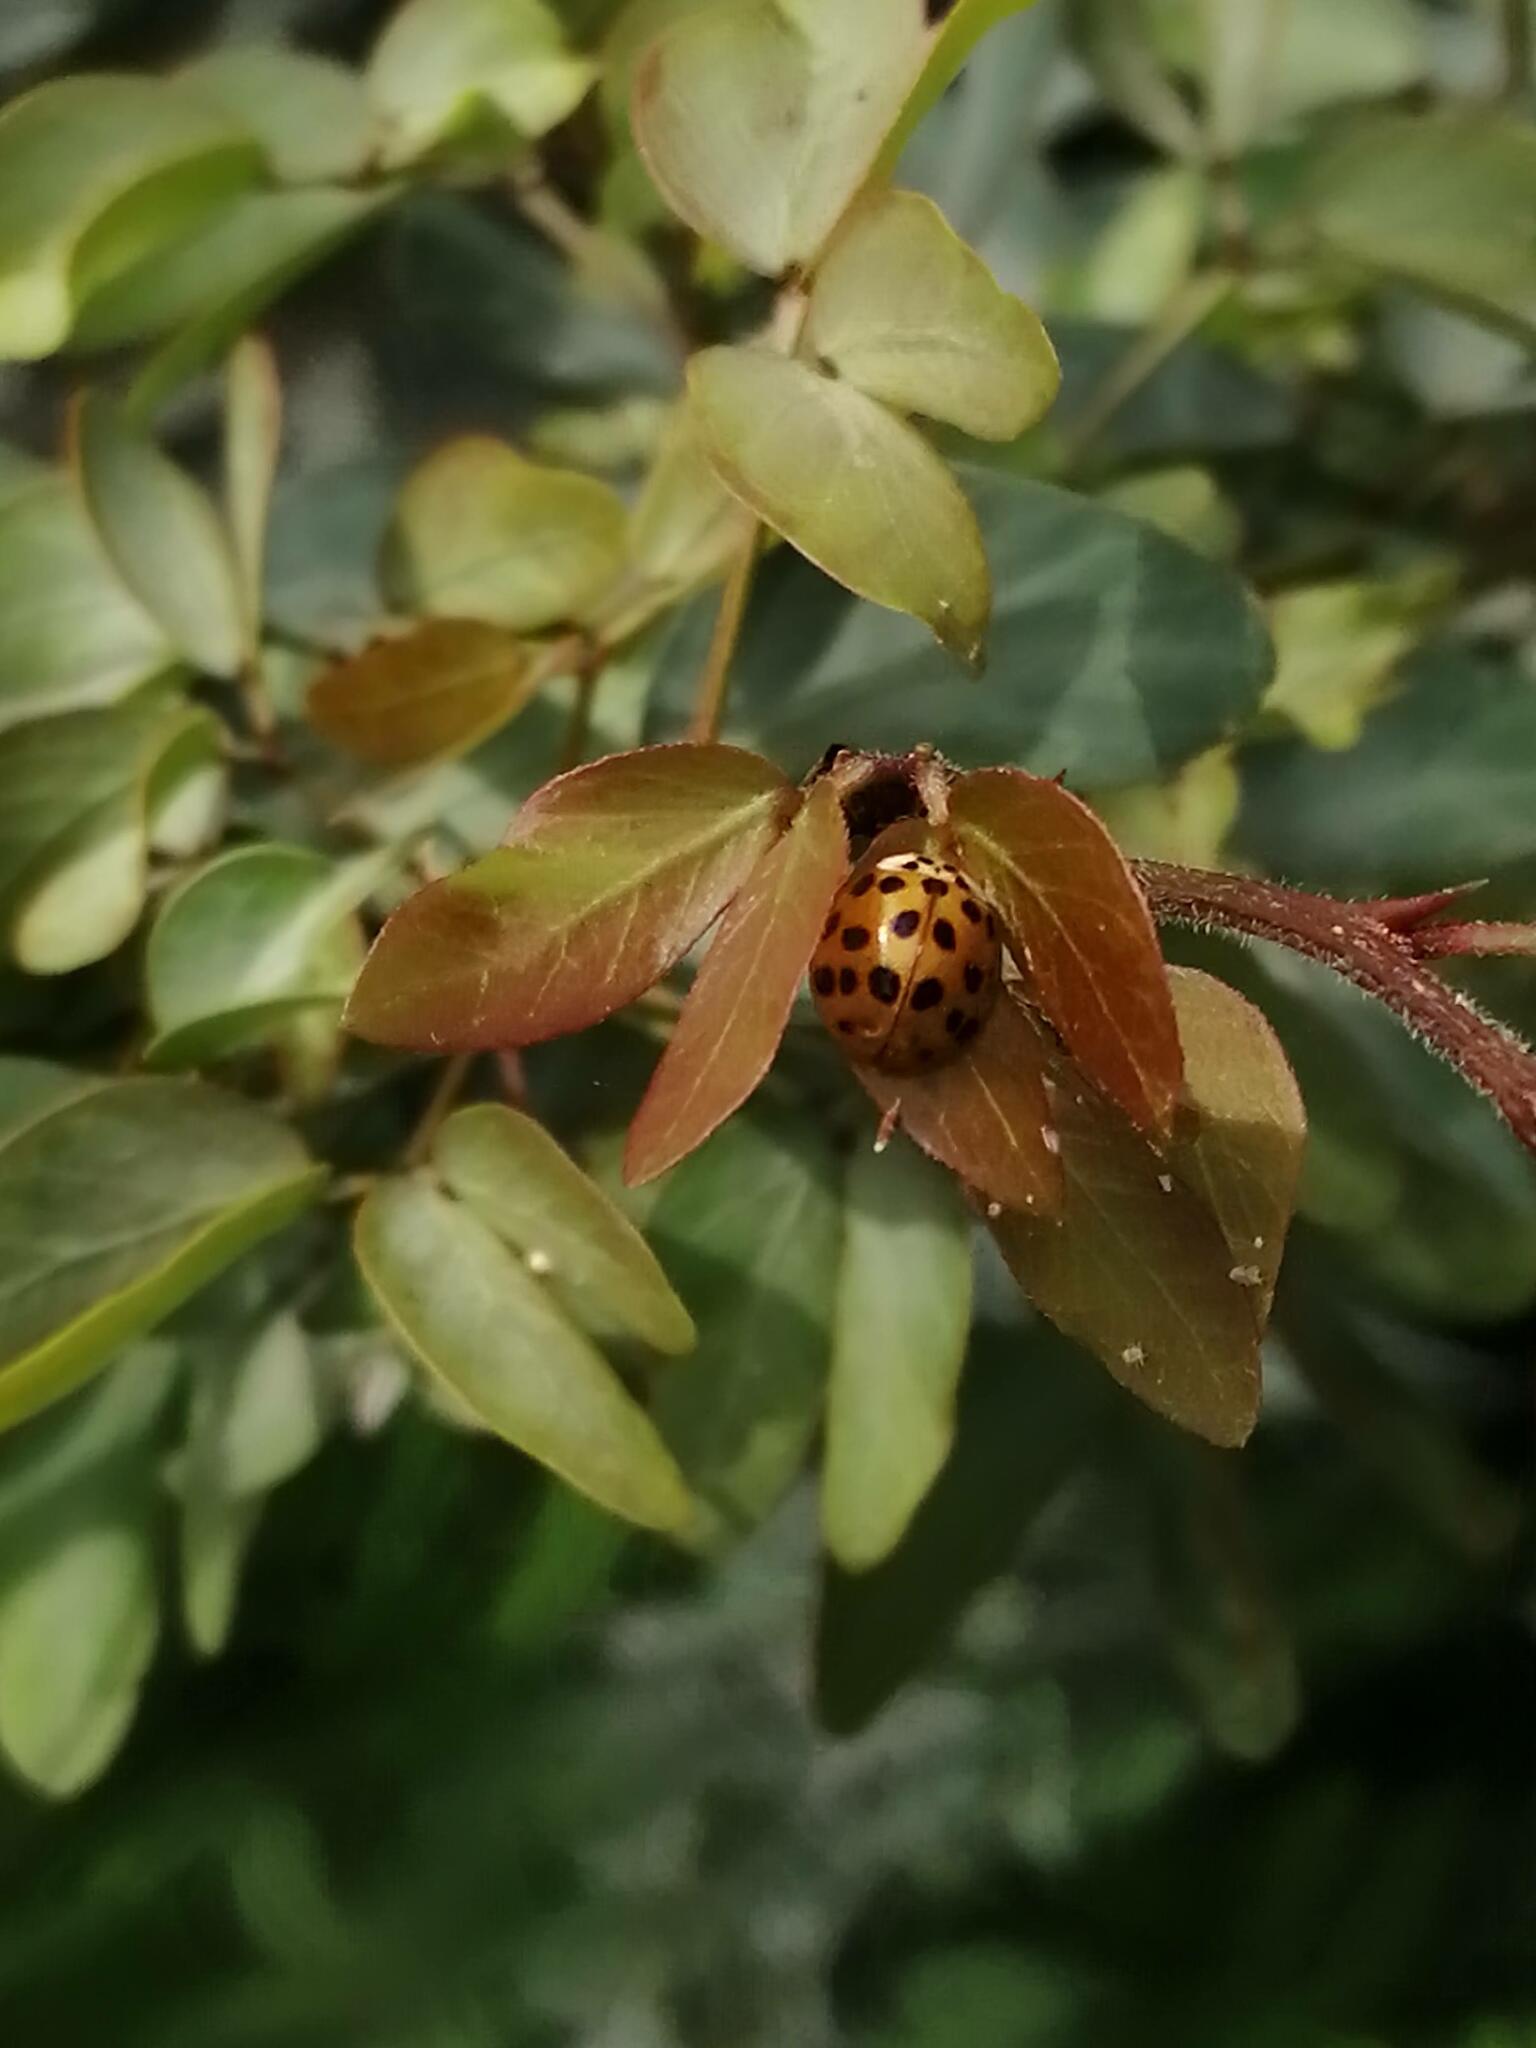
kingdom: Animalia
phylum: Arthropoda
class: Insecta
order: Coleoptera
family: Coccinellidae
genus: Harmonia
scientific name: Harmonia axyridis
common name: Harlequin ladybird
